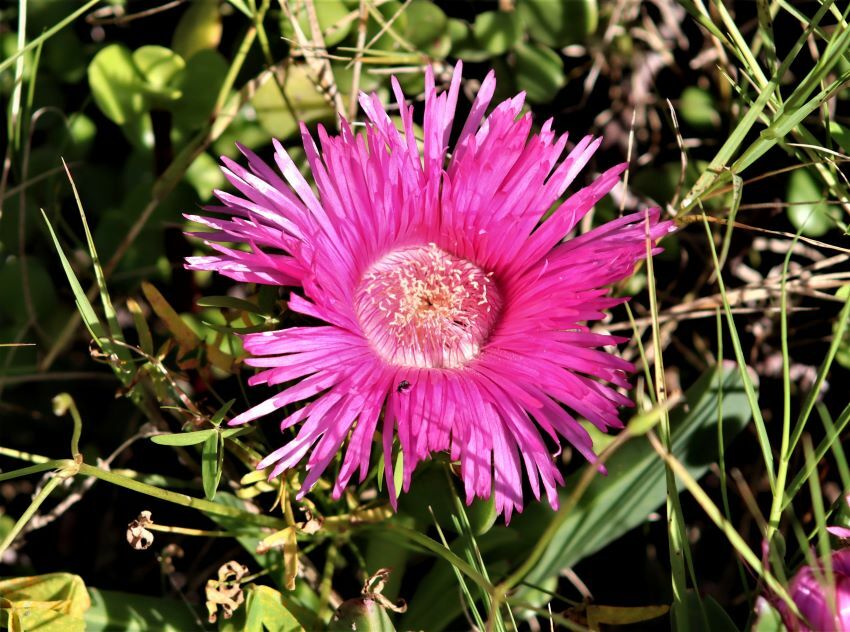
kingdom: Plantae
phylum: Tracheophyta
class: Magnoliopsida
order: Caryophyllales
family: Aizoaceae
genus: Carpobrotus
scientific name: Carpobrotus deliciosus
